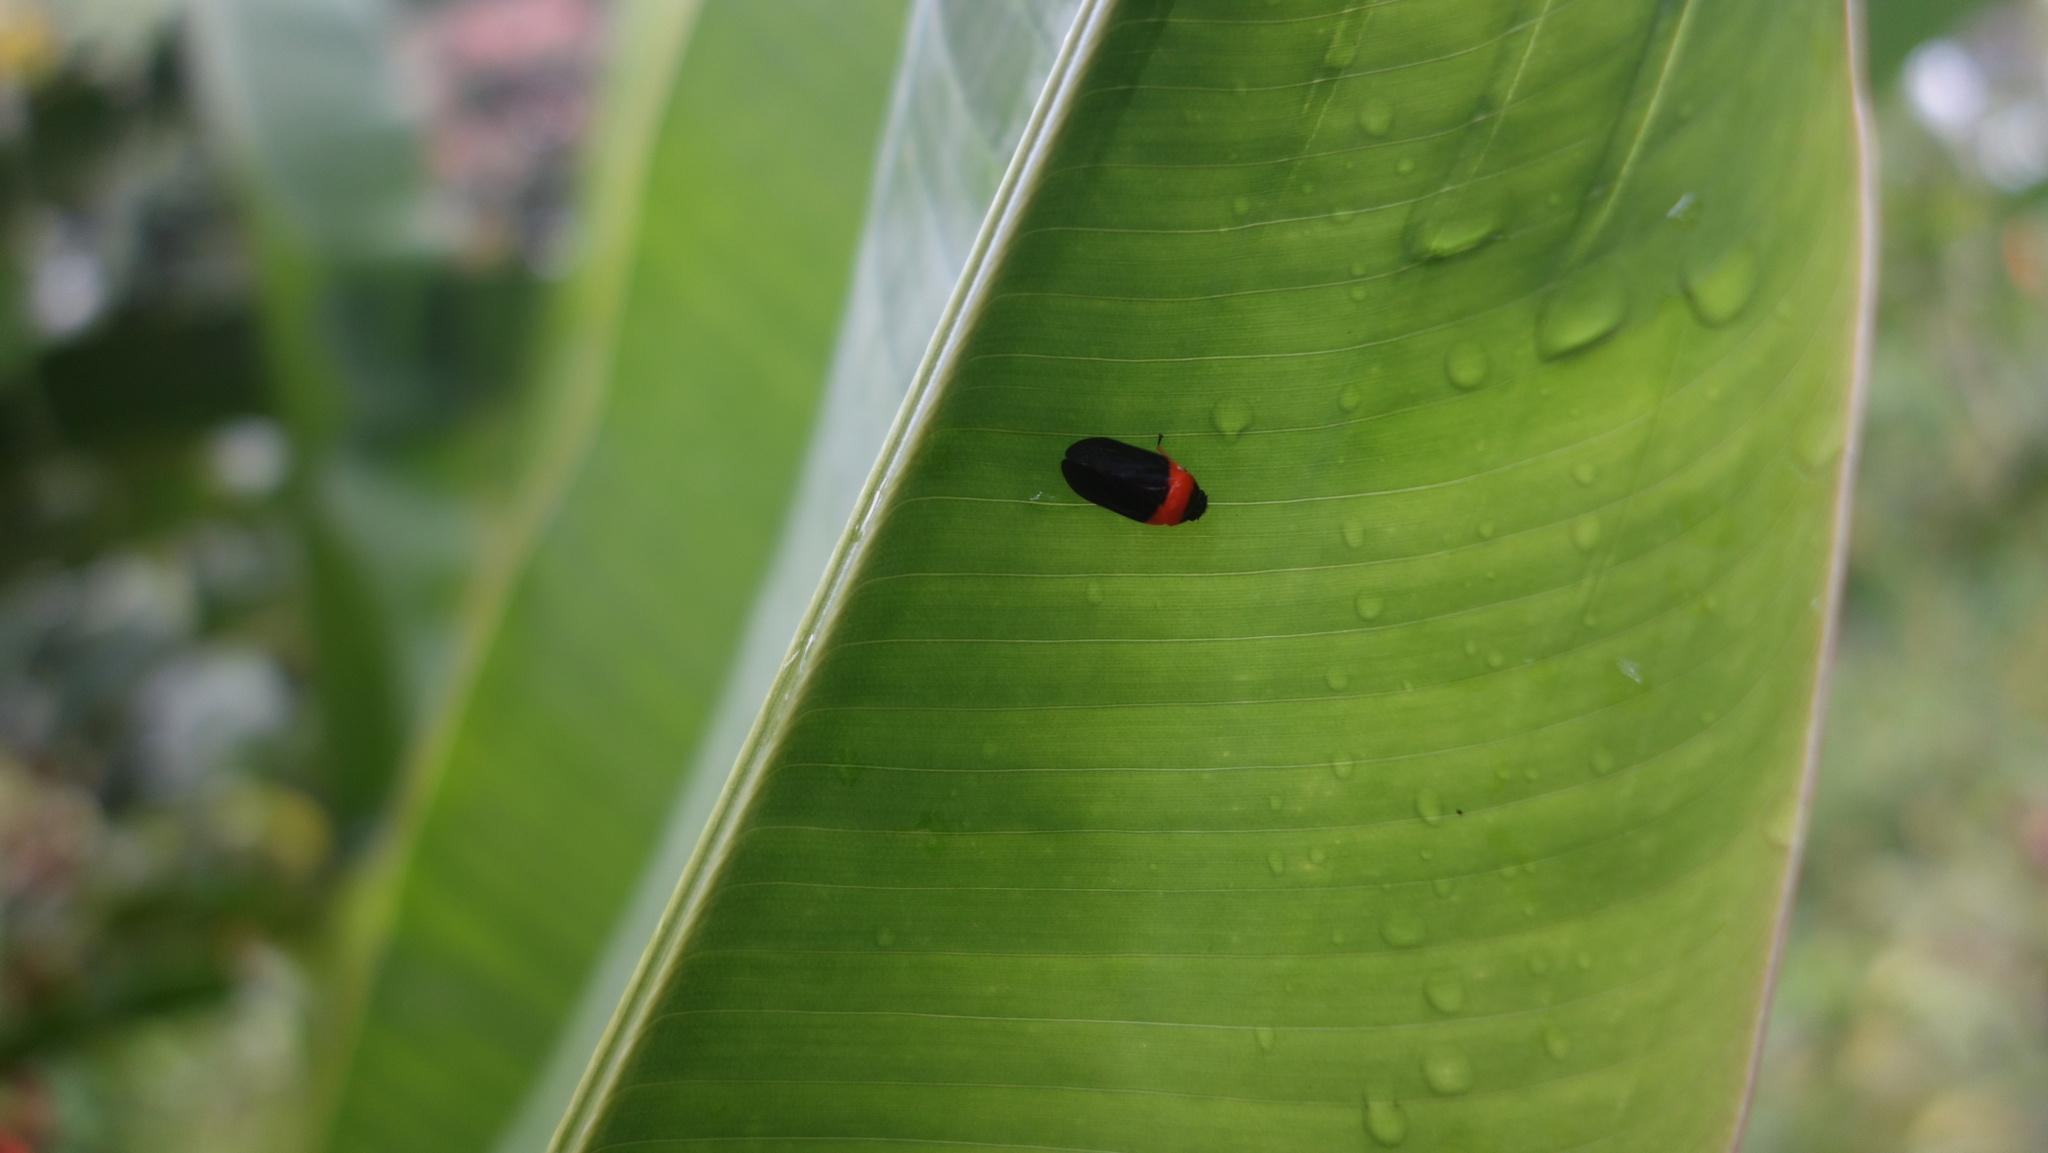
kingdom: Animalia
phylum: Arthropoda
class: Insecta
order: Hemiptera
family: Cercopidae
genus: Phymatostetha
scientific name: Phymatostetha deschampsi
